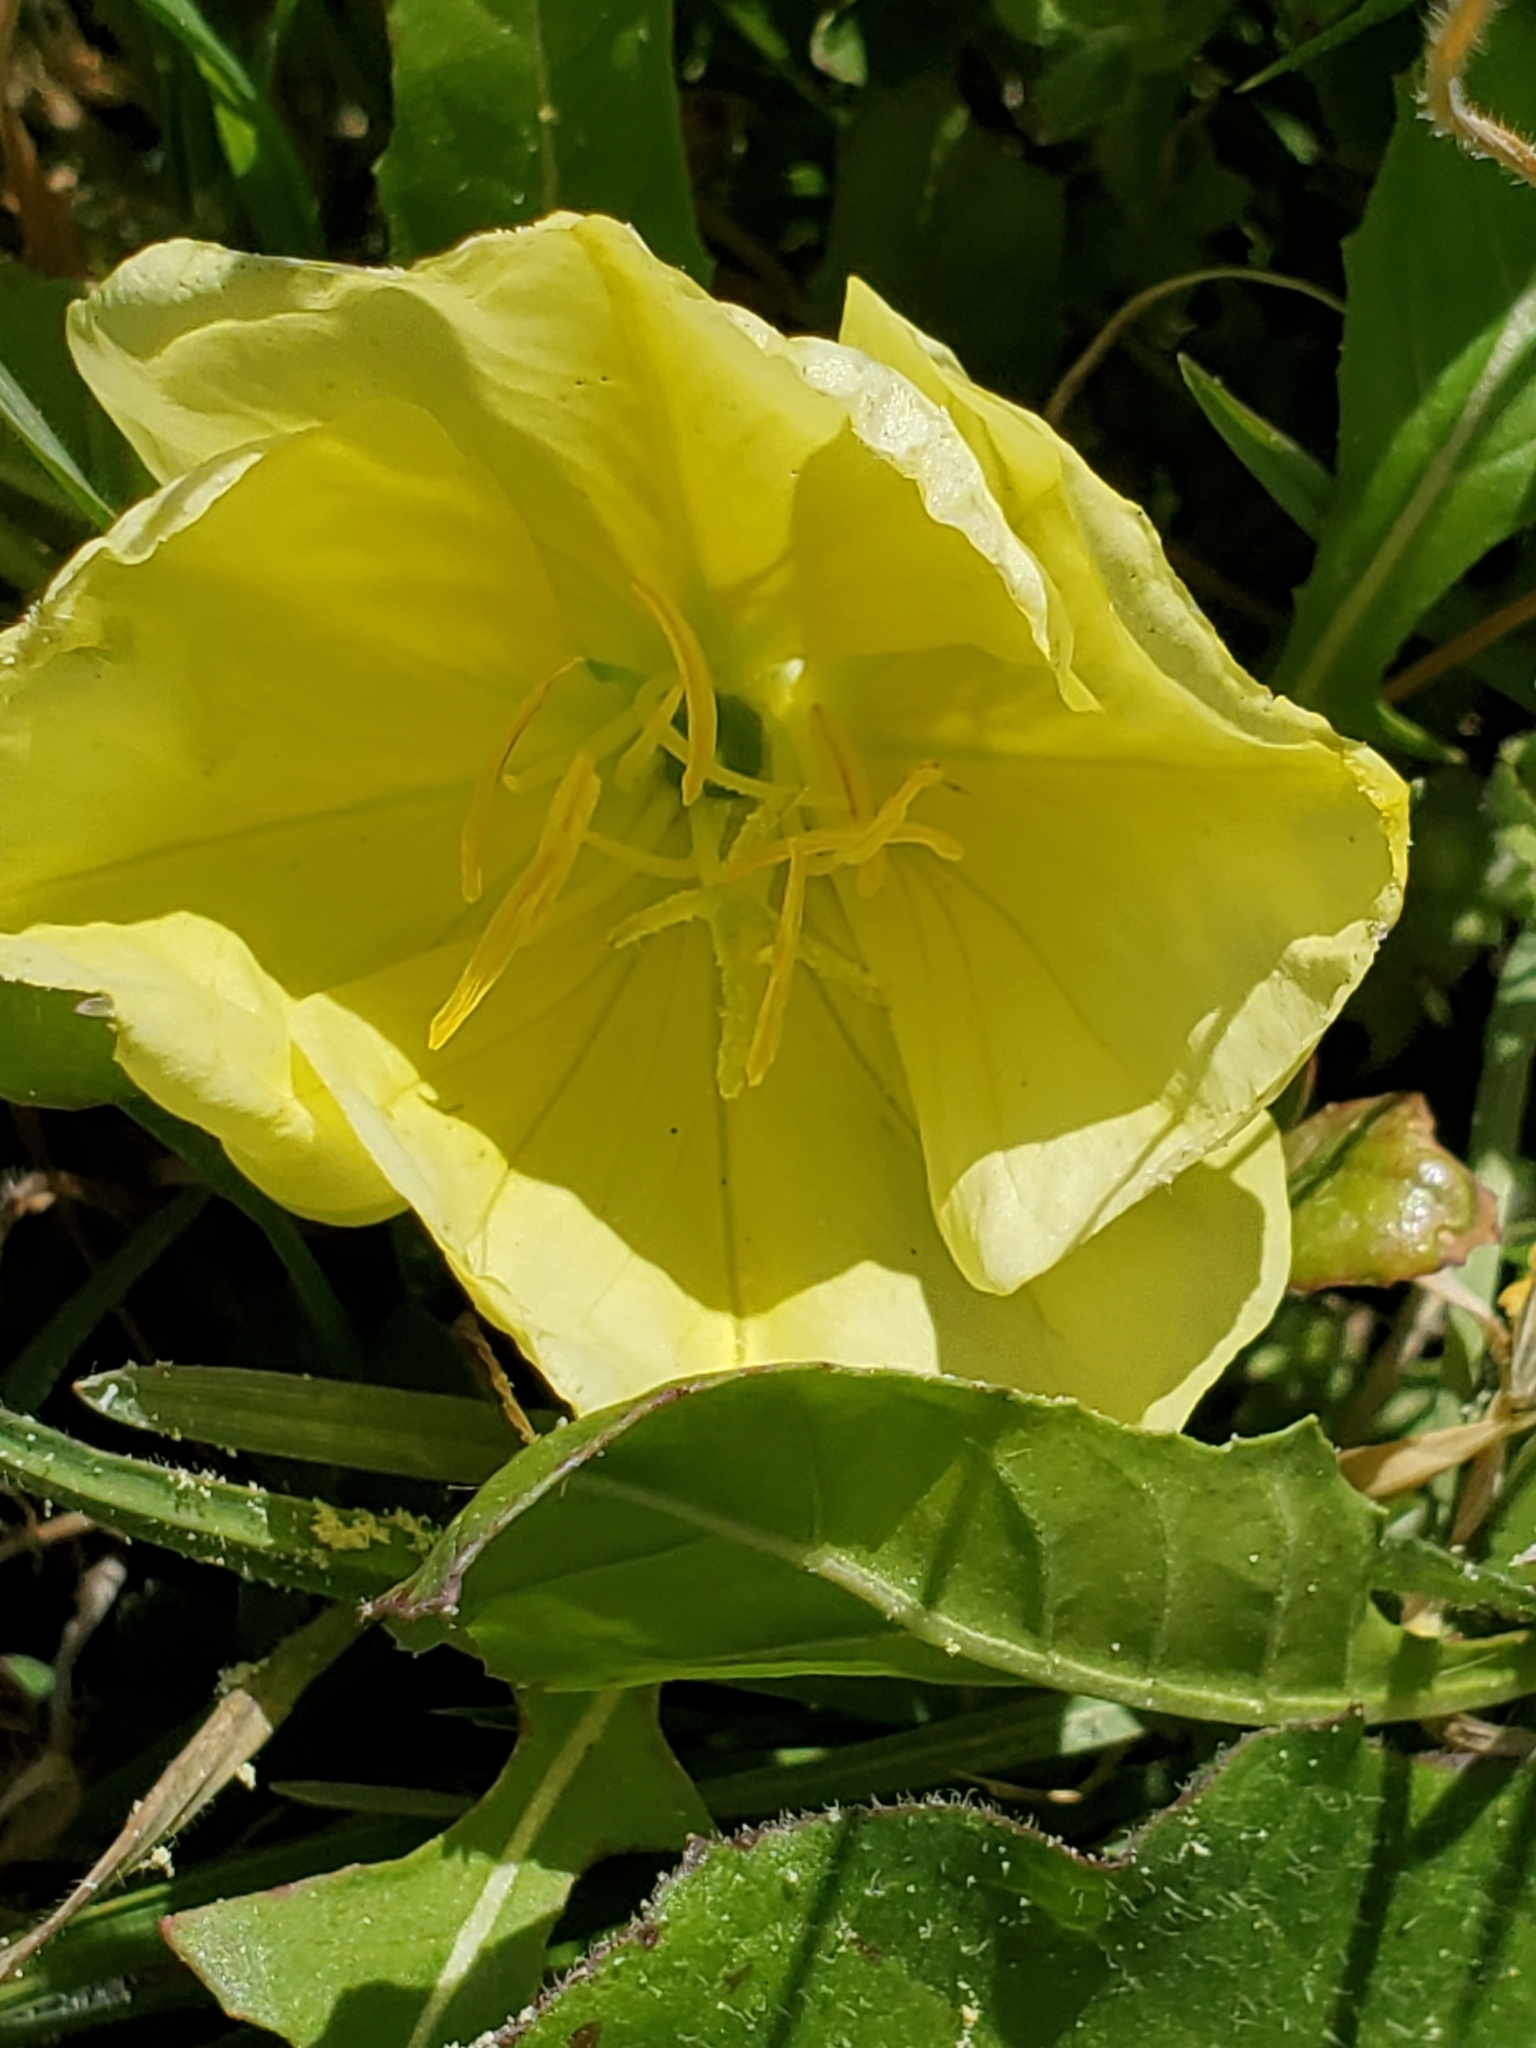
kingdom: Plantae
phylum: Tracheophyta
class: Magnoliopsida
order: Myrtales
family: Onagraceae
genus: Oenothera
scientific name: Oenothera triloba
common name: Sessile evening-primrose
